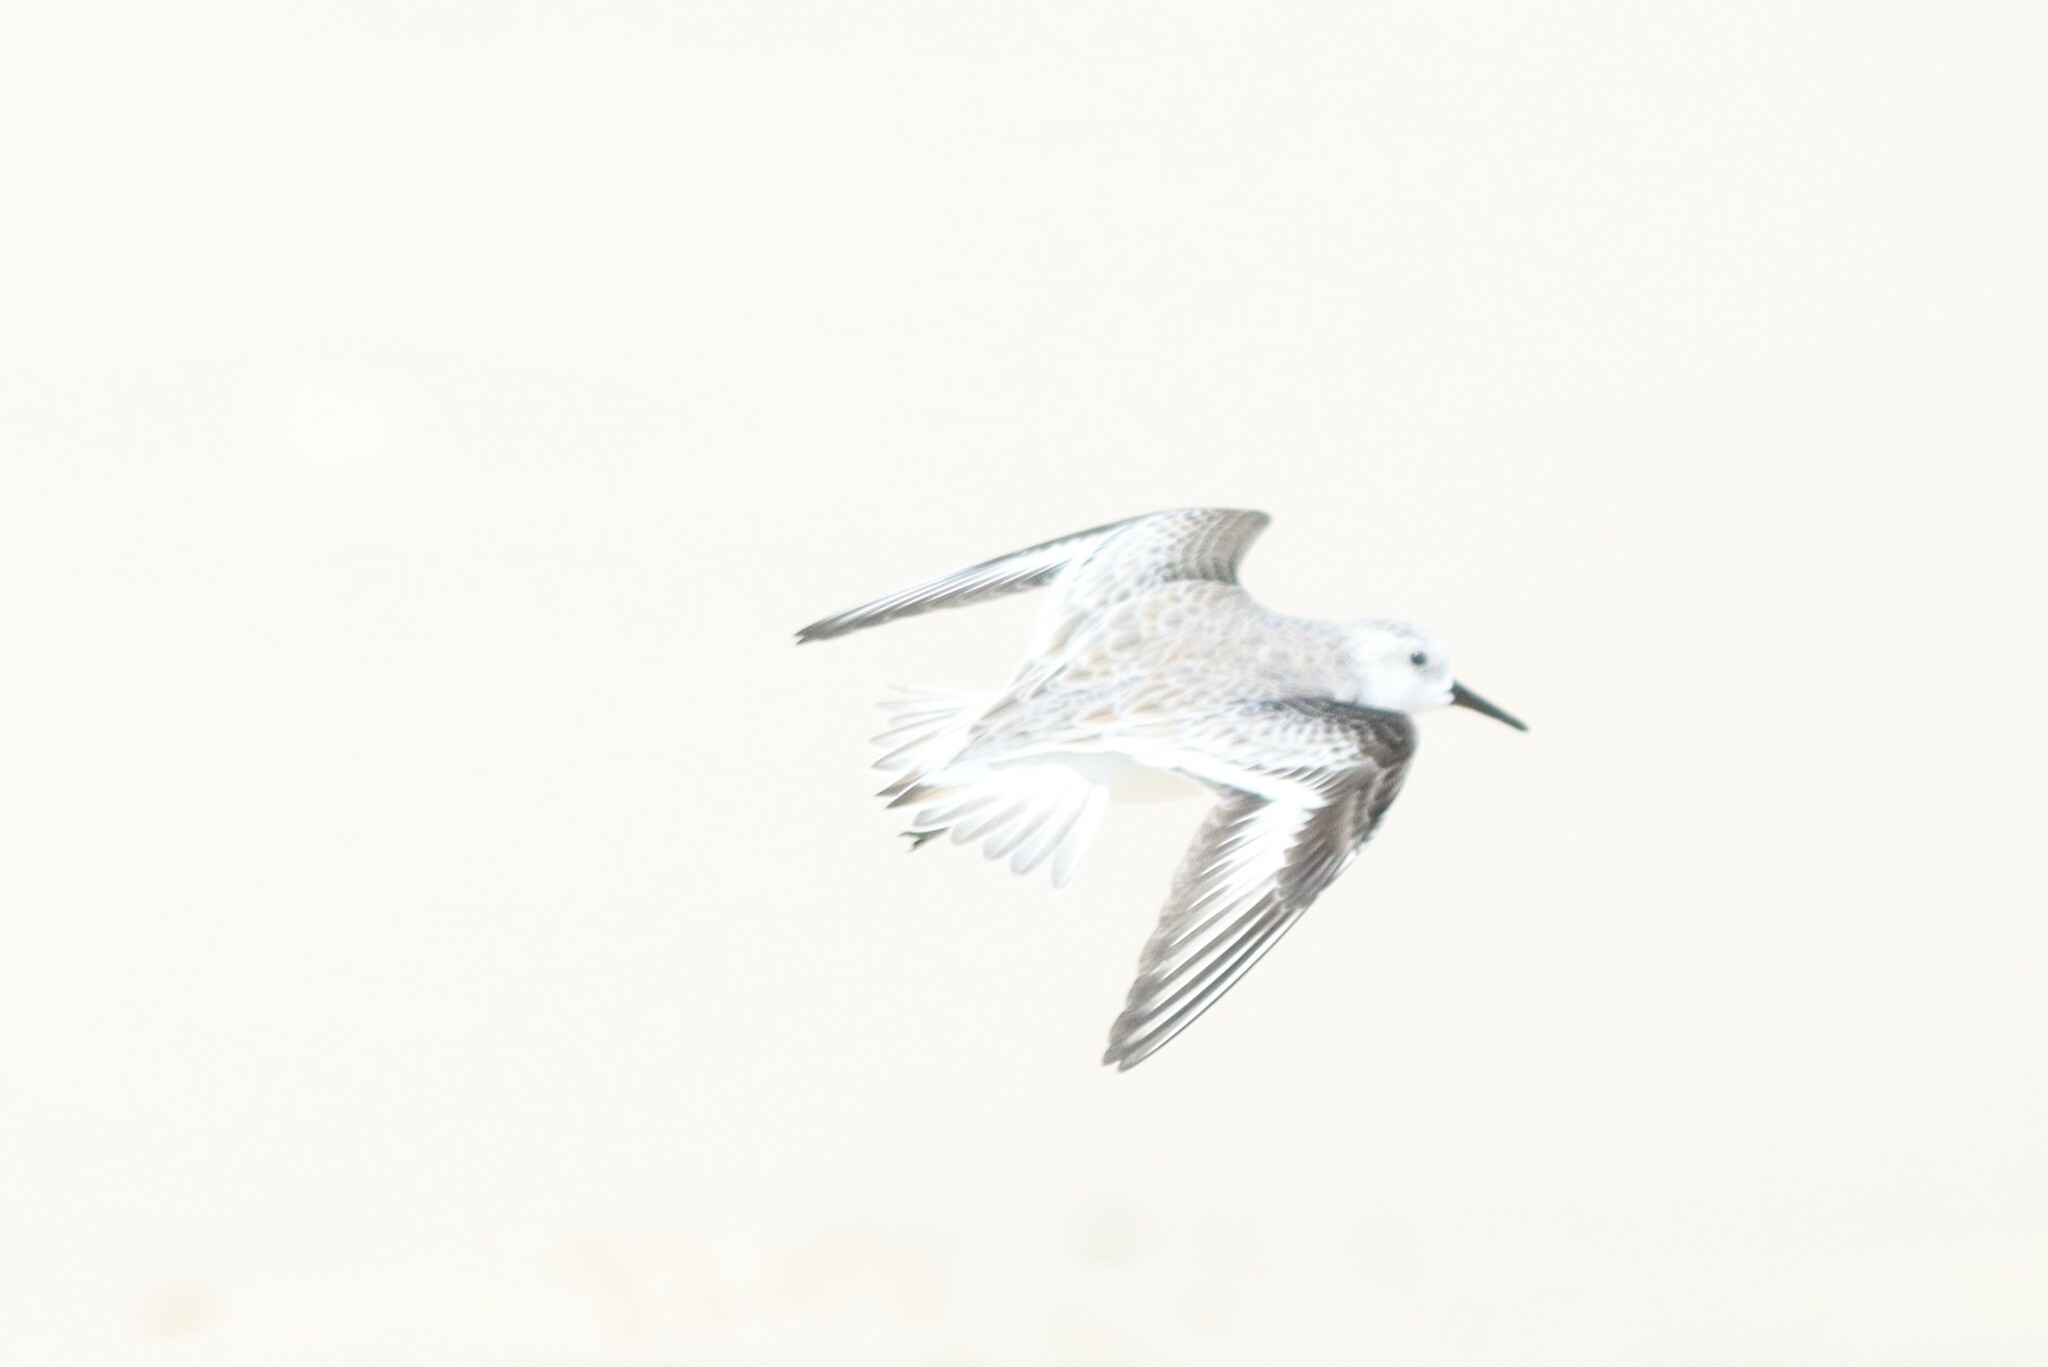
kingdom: Animalia
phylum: Chordata
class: Aves
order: Charadriiformes
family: Scolopacidae
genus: Calidris
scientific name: Calidris alba
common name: Sanderling
